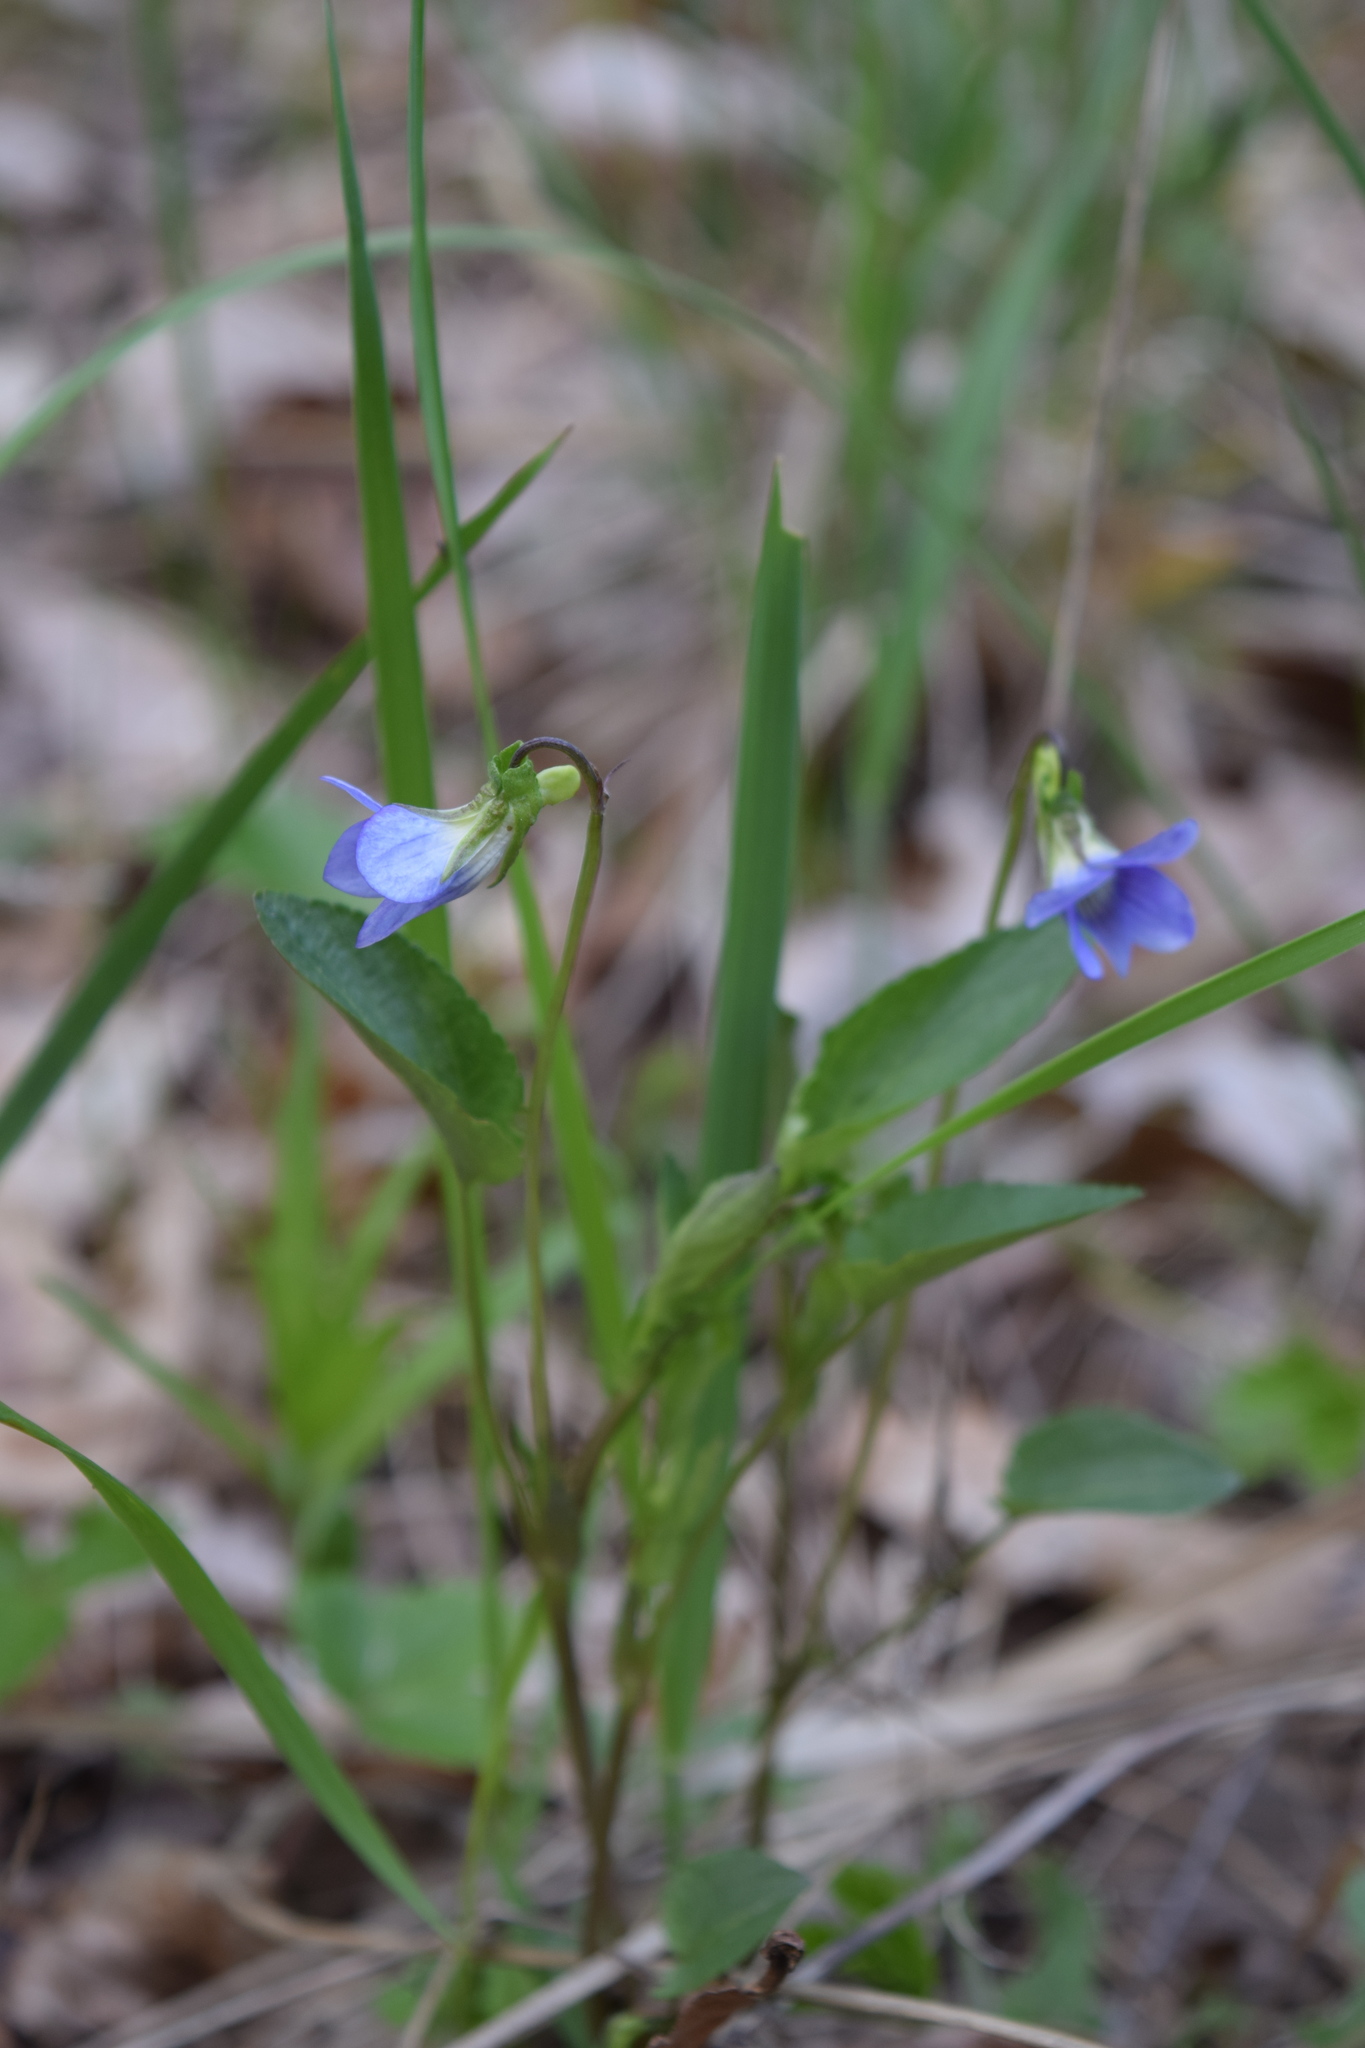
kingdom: Plantae
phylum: Tracheophyta
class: Magnoliopsida
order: Malpighiales
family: Violaceae
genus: Viola
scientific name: Viola canina
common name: Heath dog-violet
